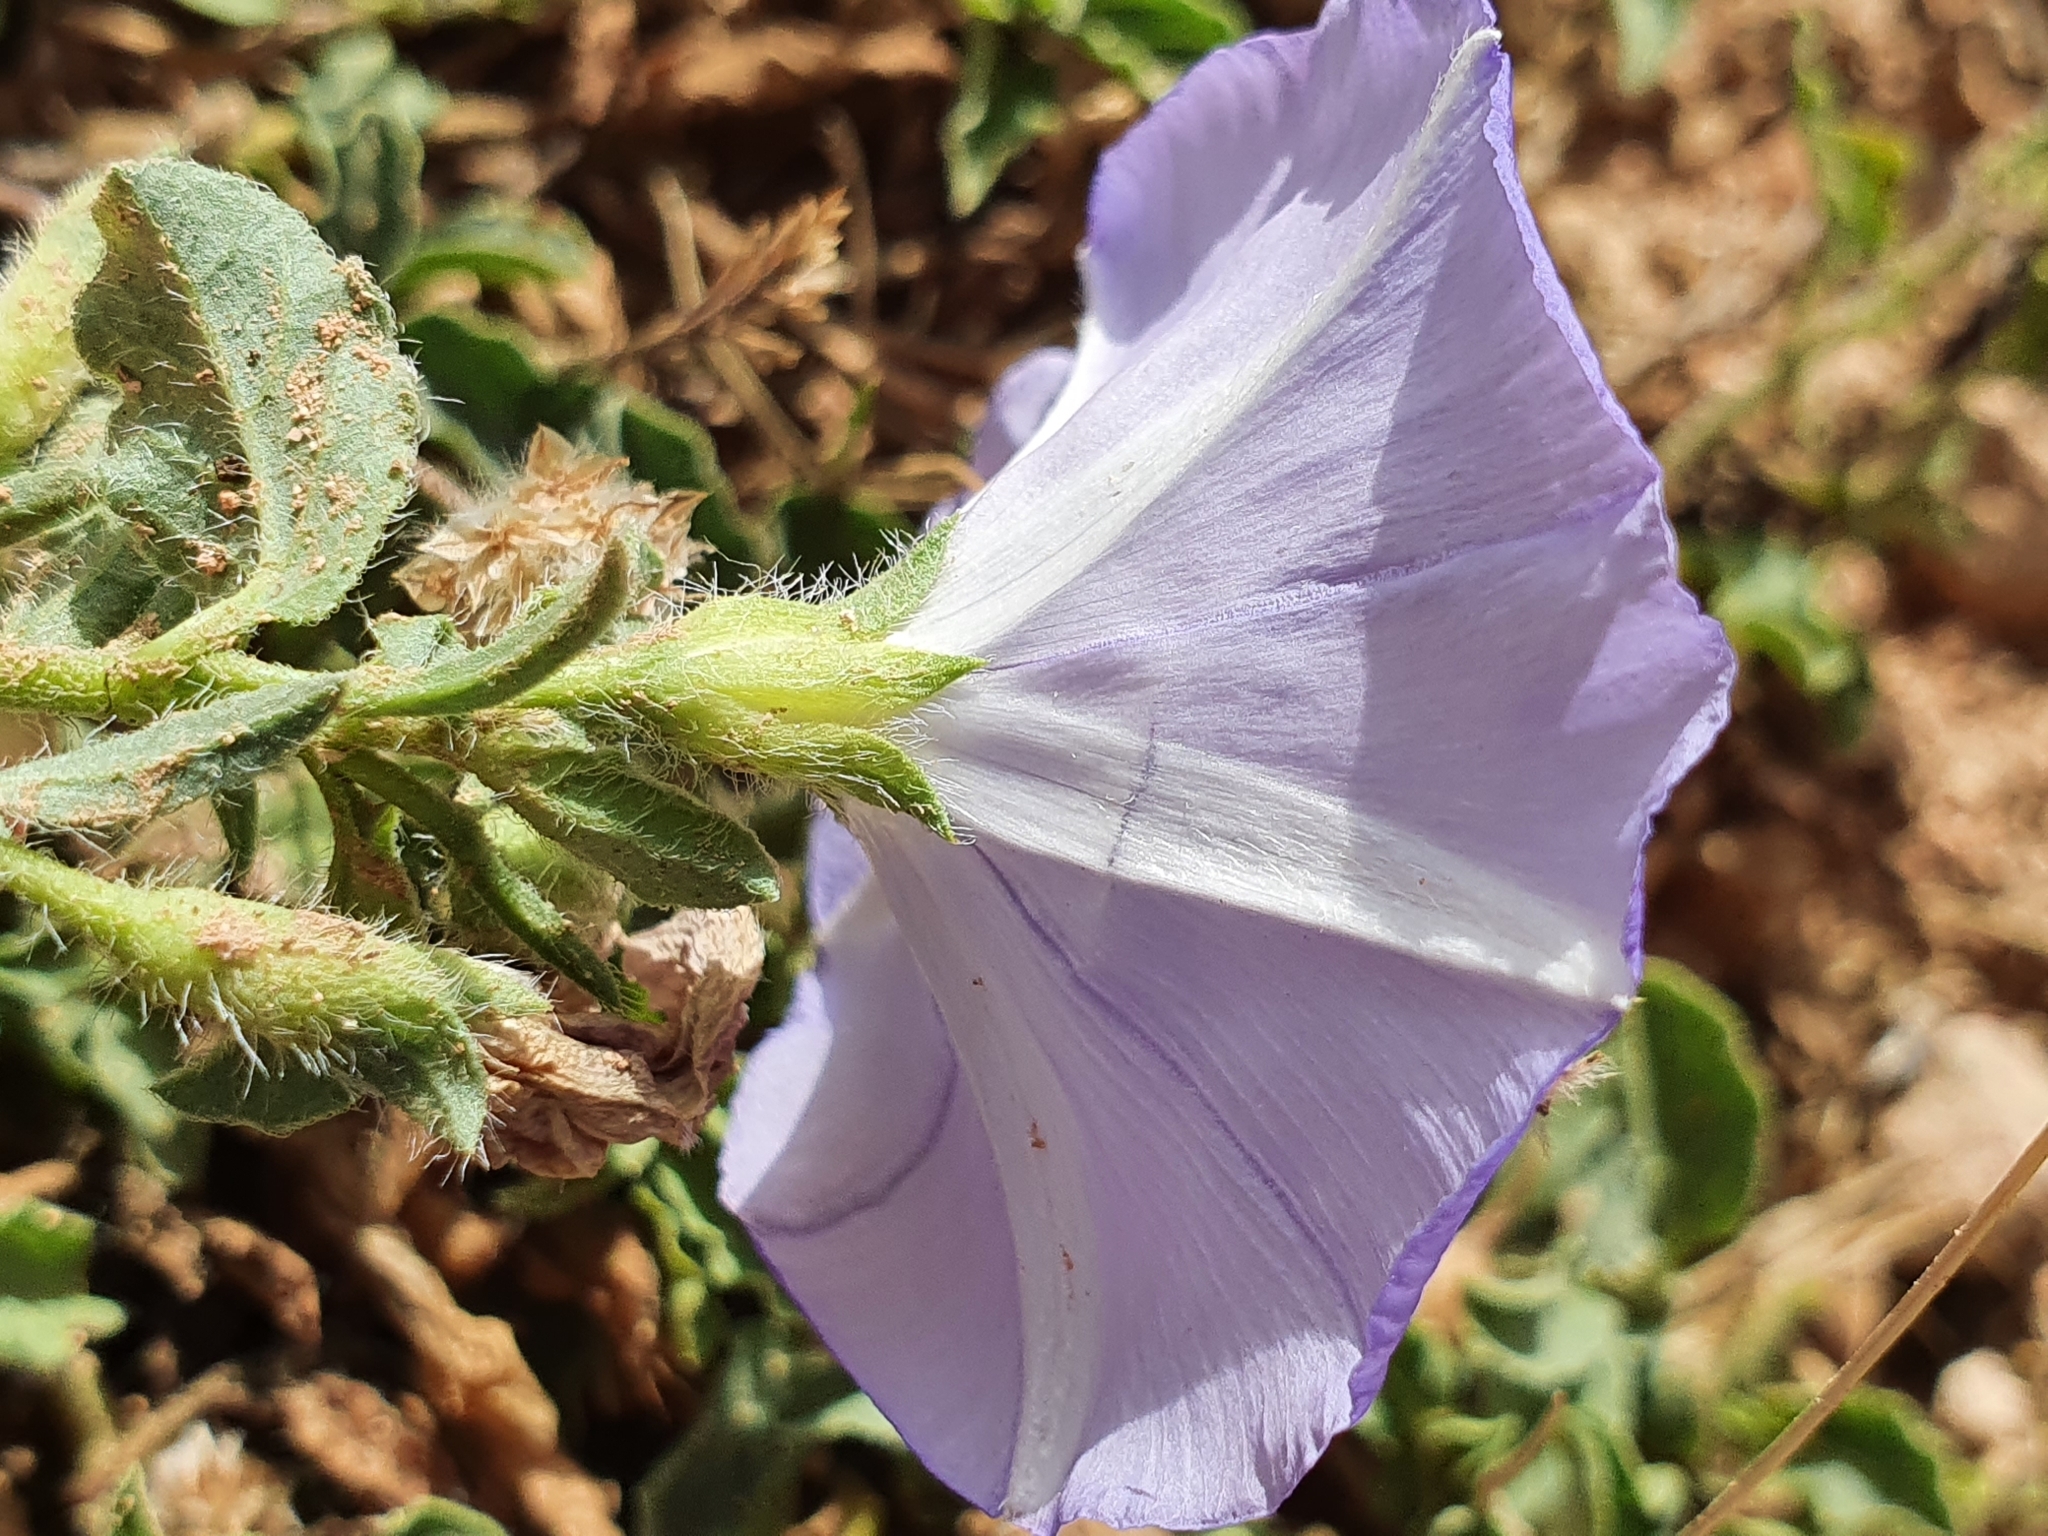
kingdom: Plantae
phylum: Tracheophyta
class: Magnoliopsida
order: Solanales
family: Convolvulaceae
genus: Convolvulus
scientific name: Convolvulus sabatius
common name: Ground blue-convolvulus
